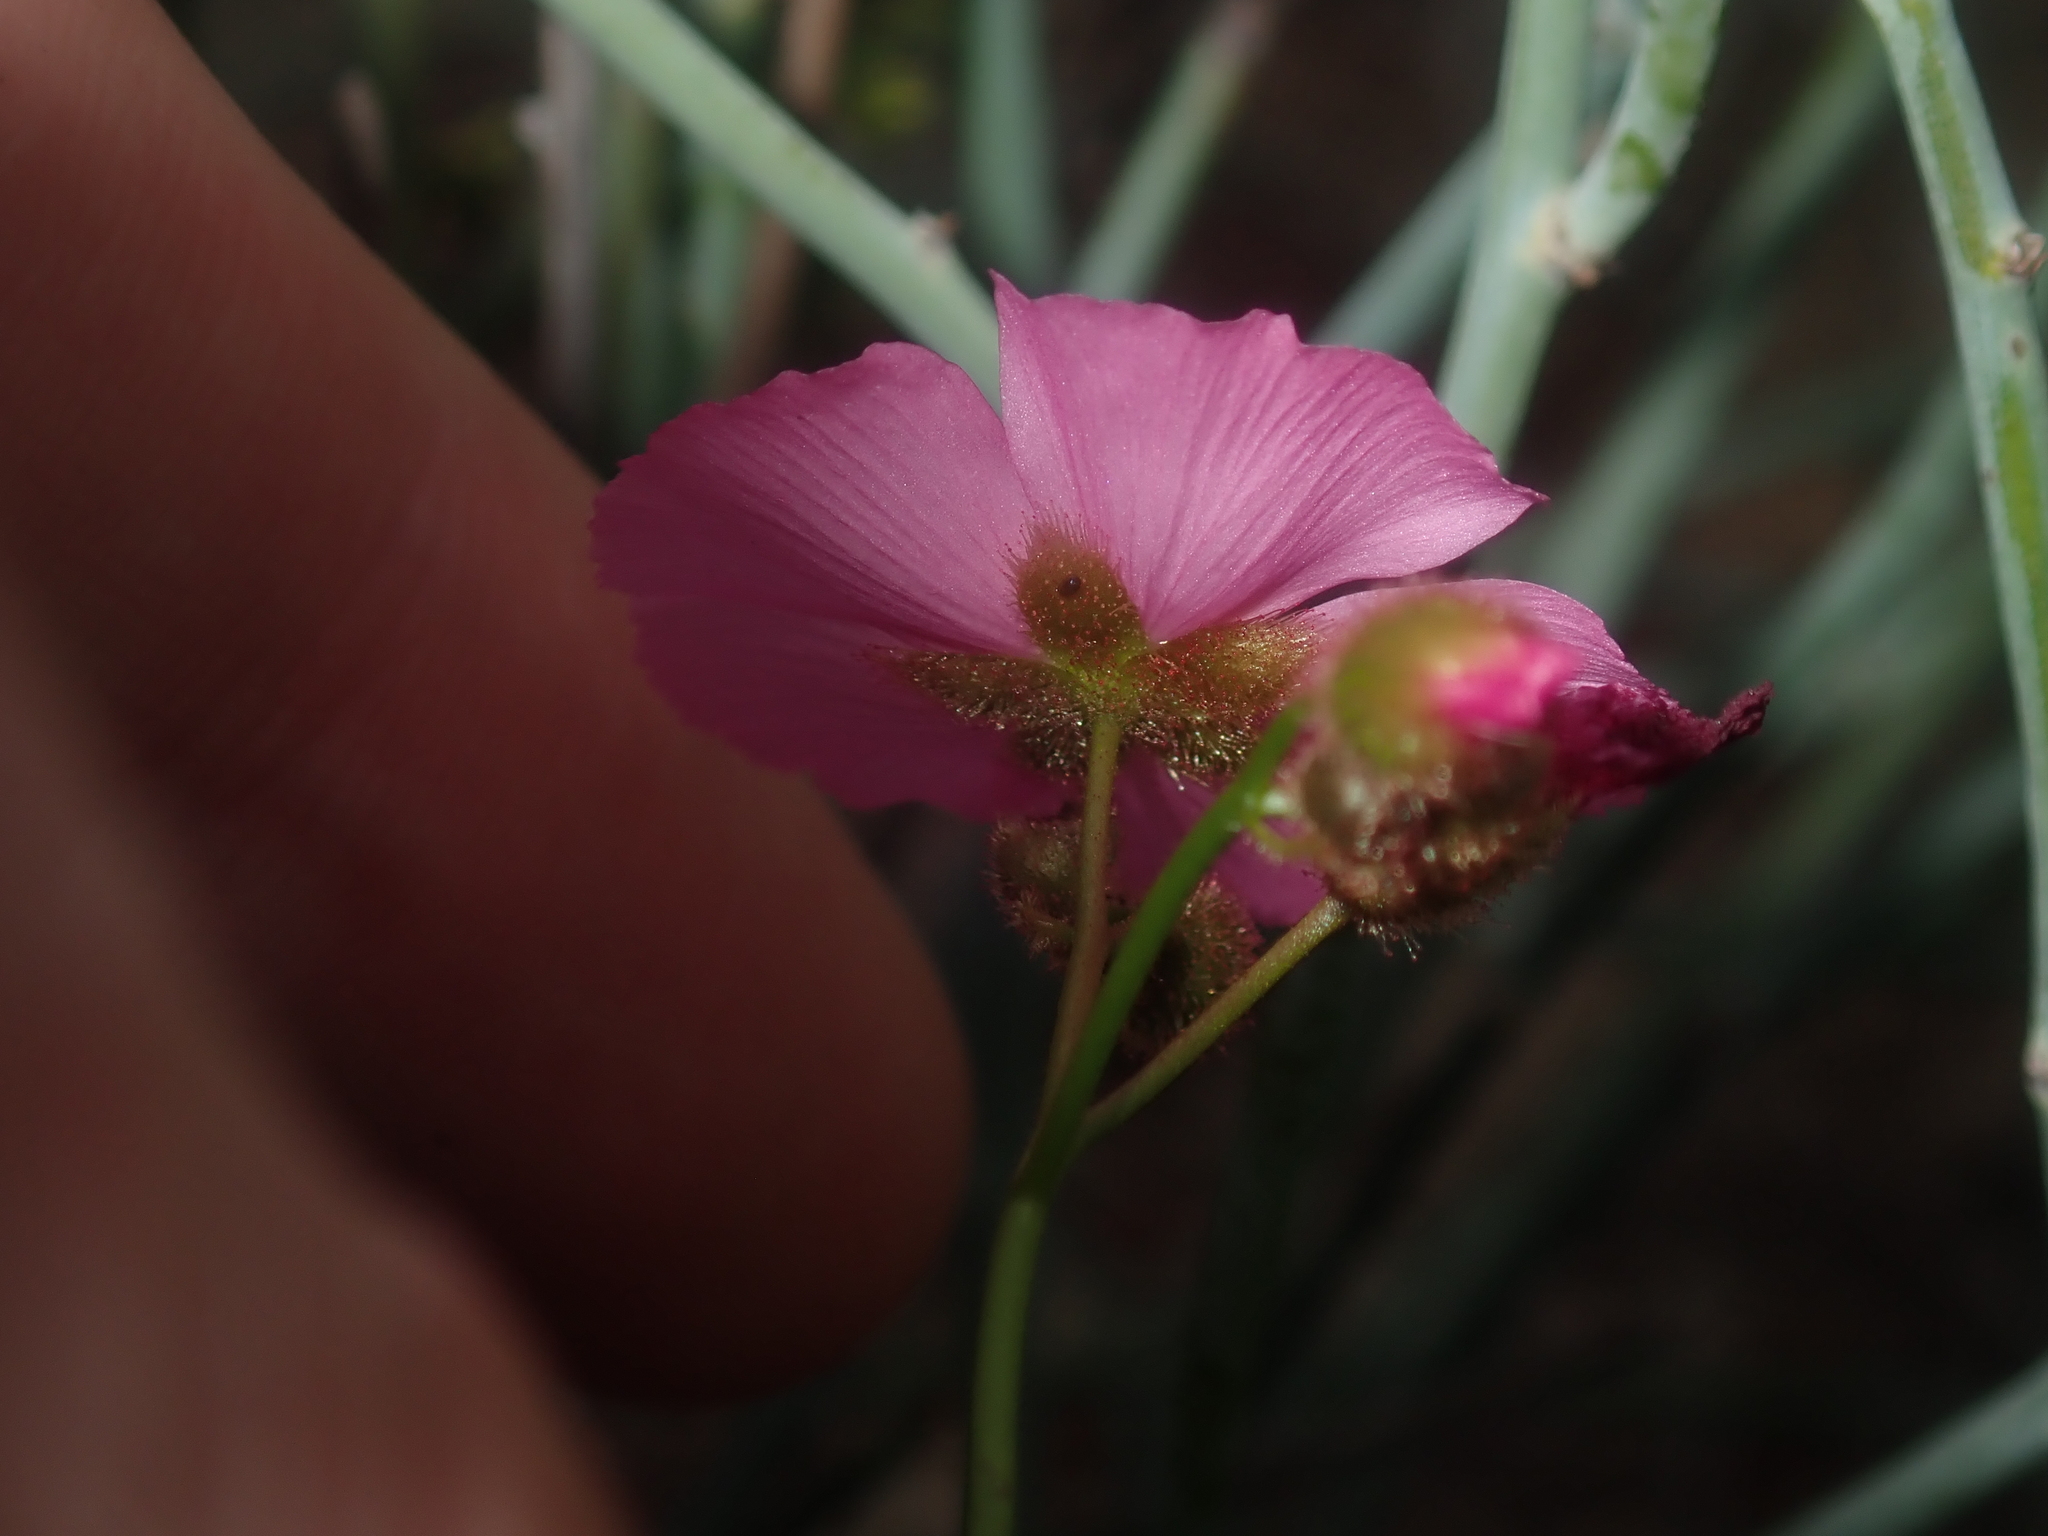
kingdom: Plantae
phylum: Tracheophyta
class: Magnoliopsida
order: Caryophyllales
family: Droseraceae
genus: Drosera
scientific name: Drosera neesii
